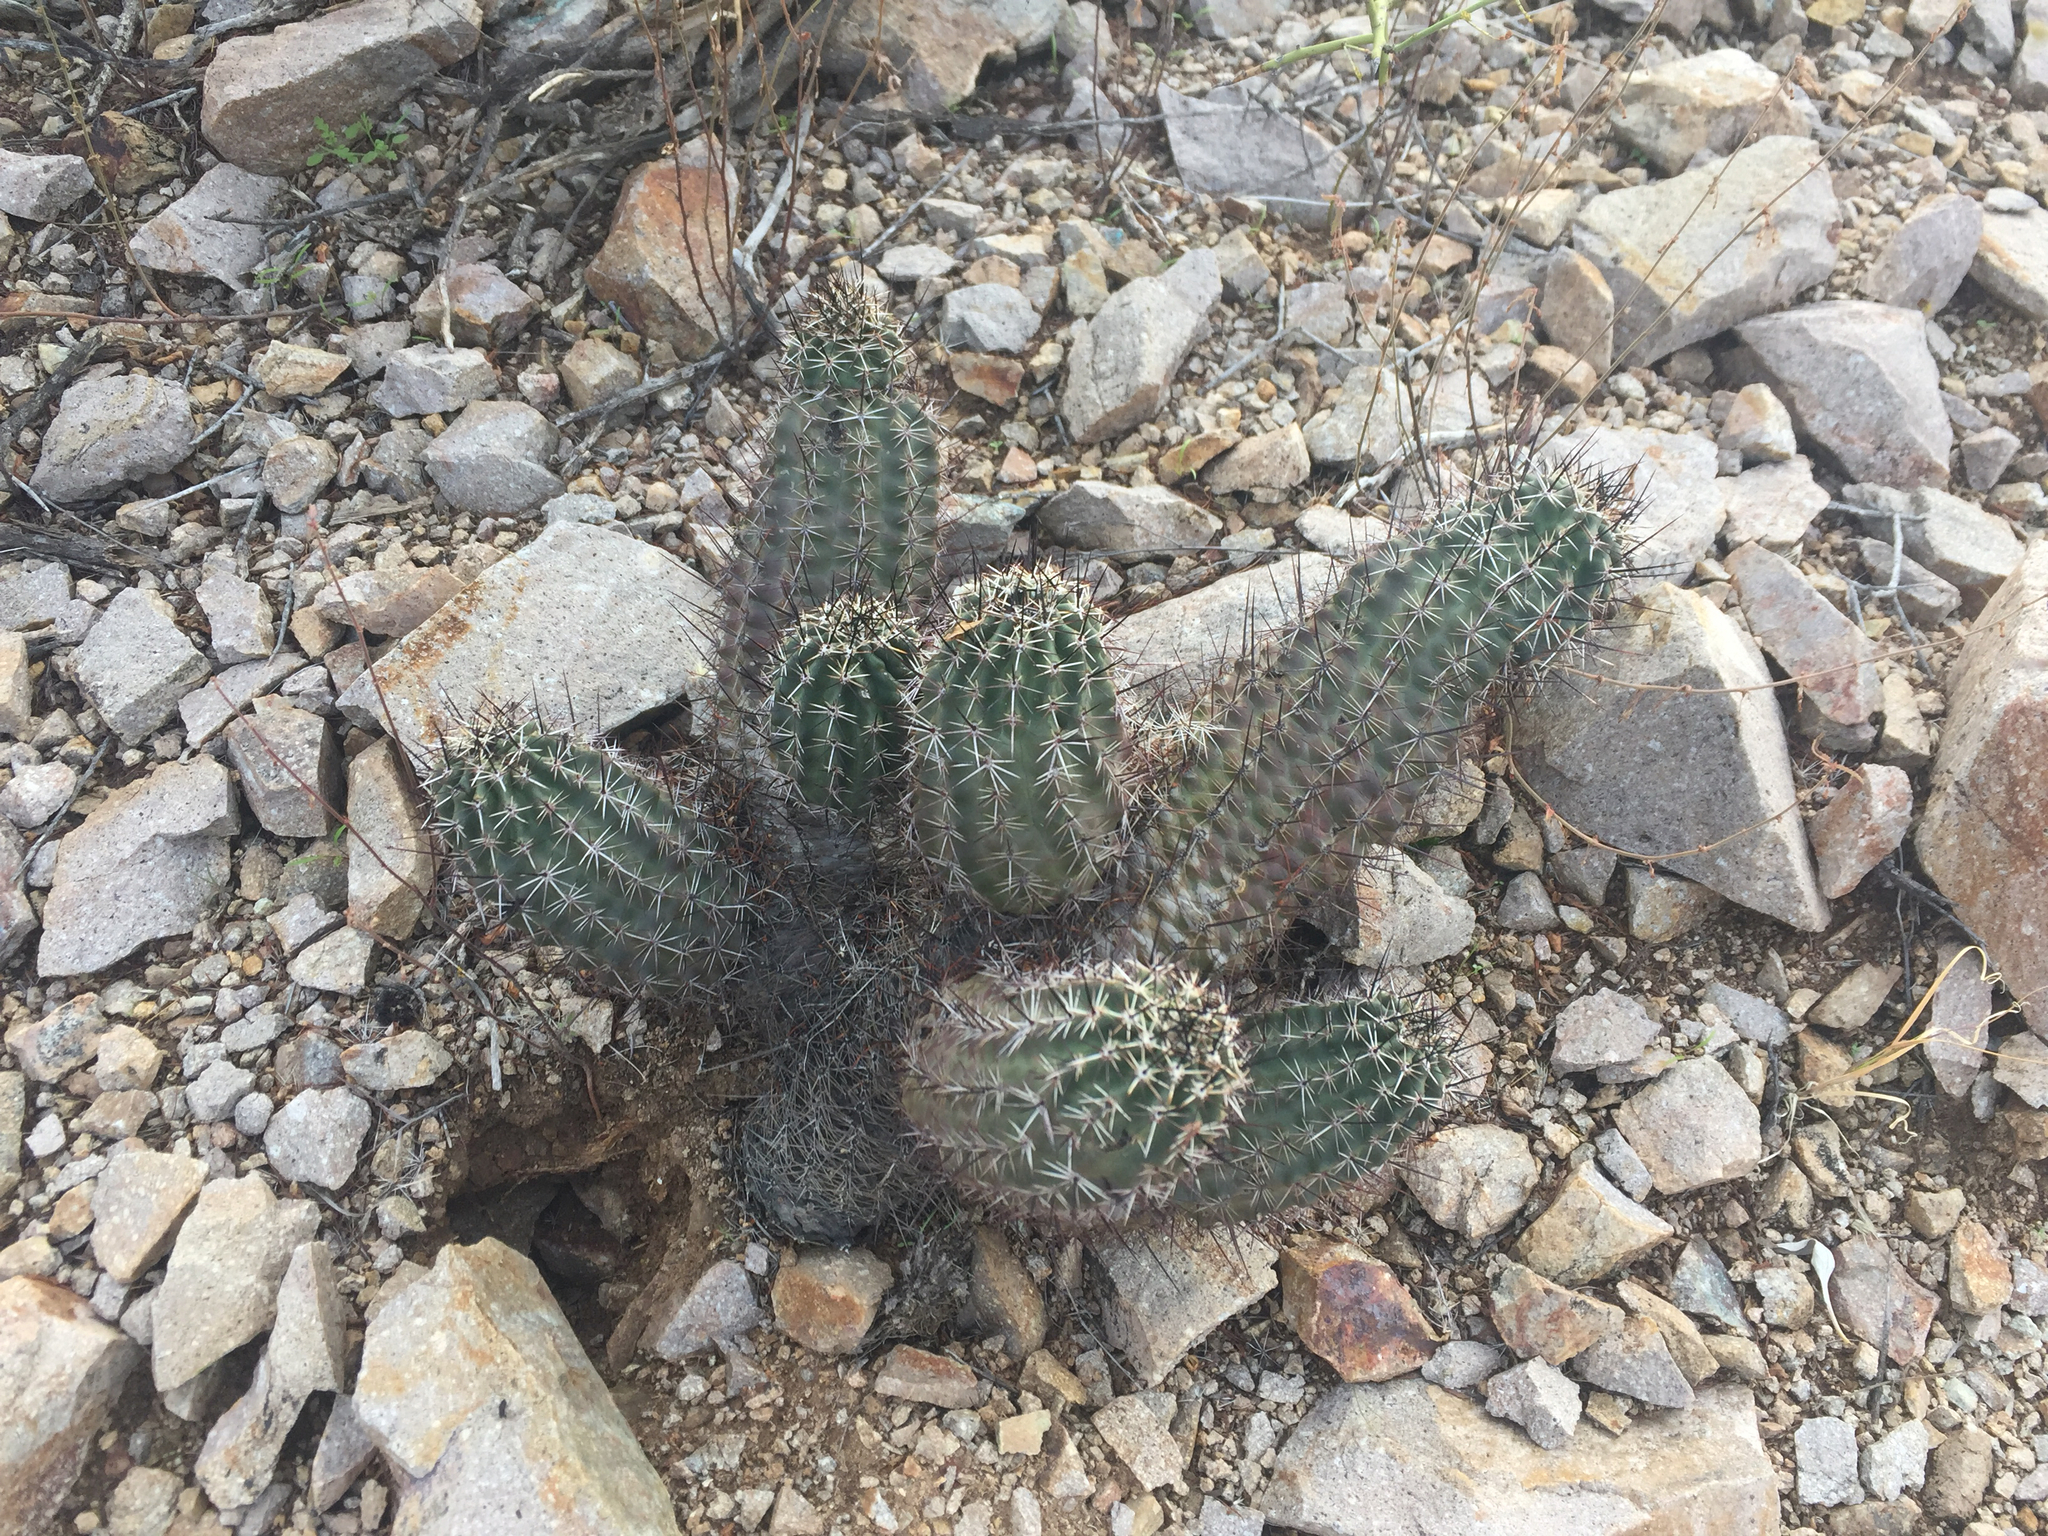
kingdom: Plantae
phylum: Tracheophyta
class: Magnoliopsida
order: Caryophyllales
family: Cactaceae
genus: Echinocereus
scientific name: Echinocereus fendleri
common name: Fendler's hedgehog cactus
